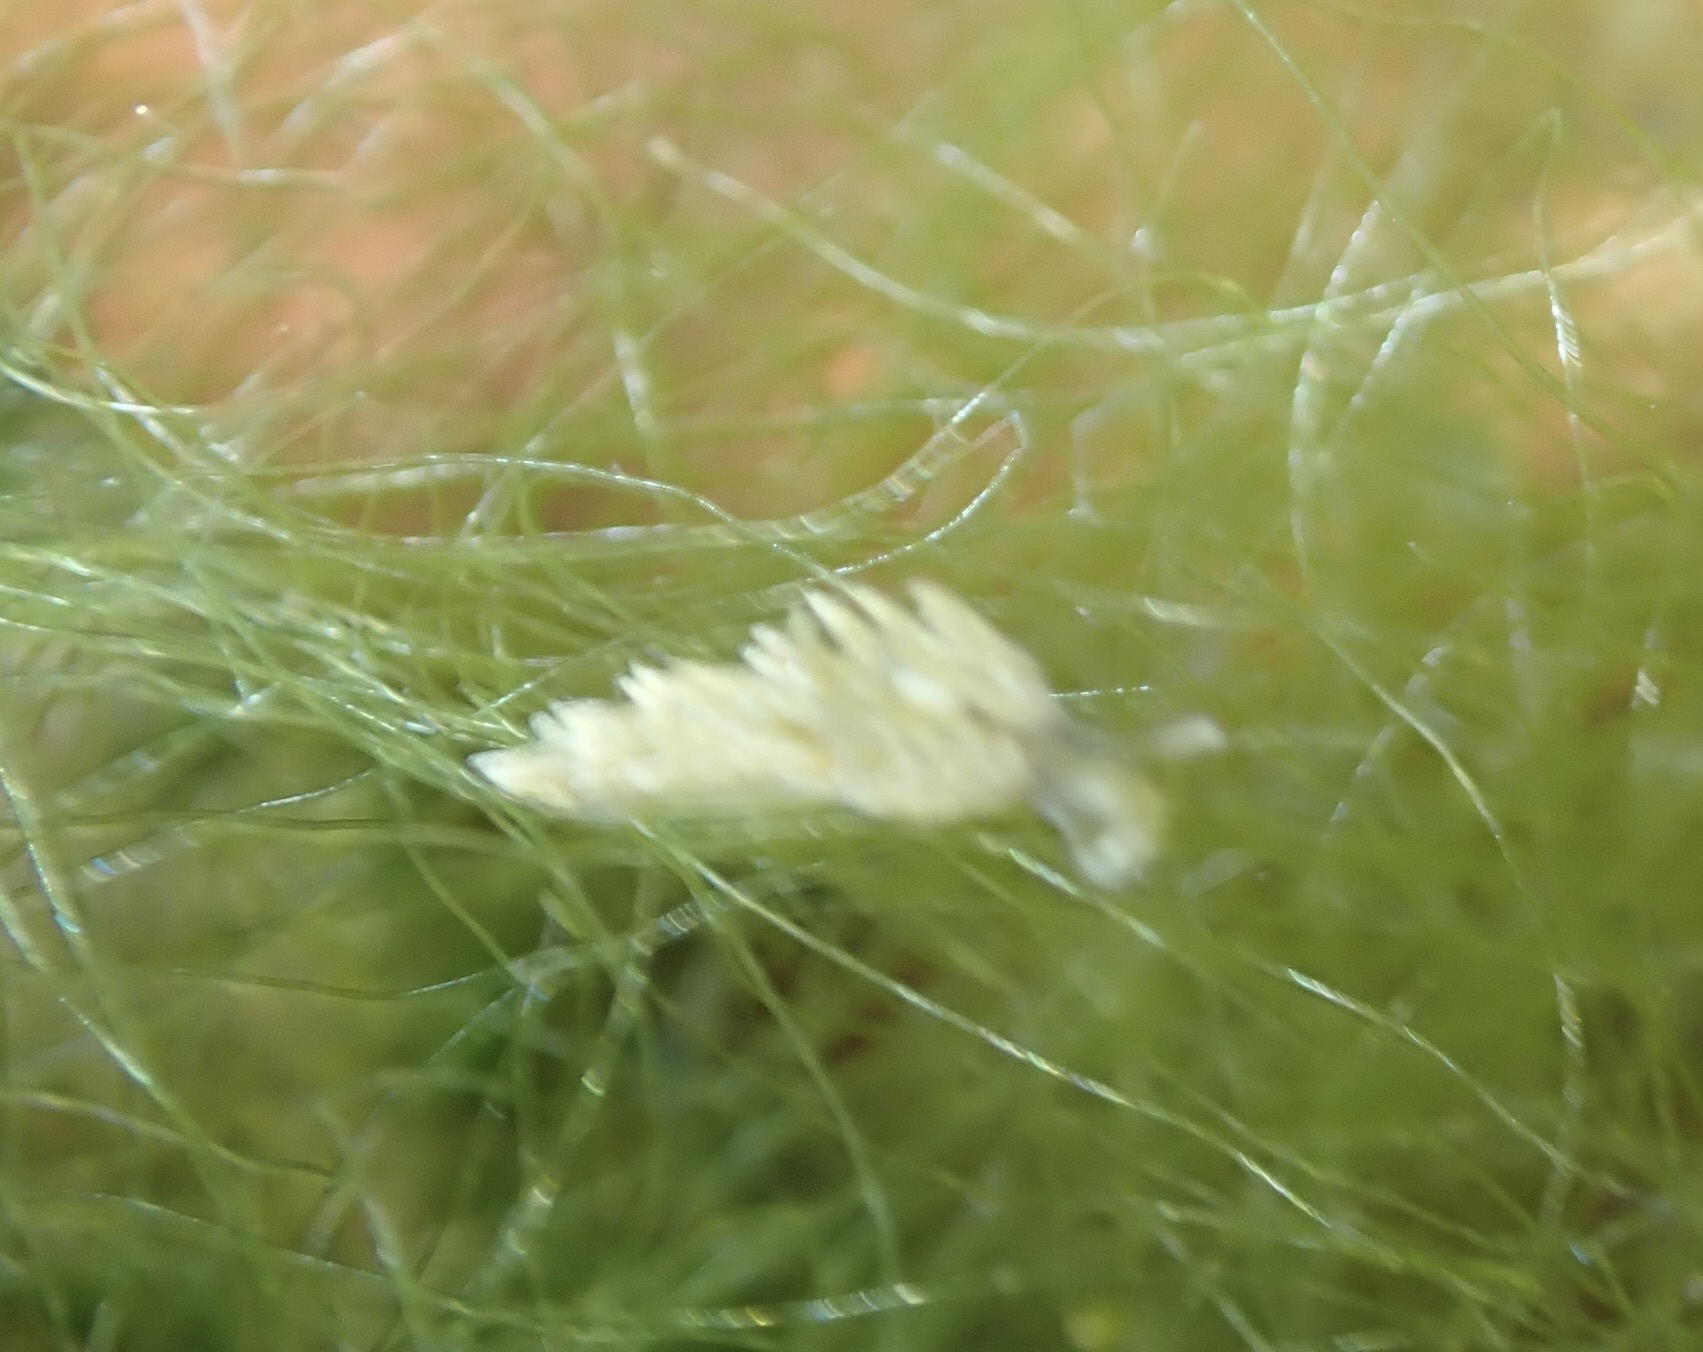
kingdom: Animalia
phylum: Mollusca
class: Gastropoda
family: Limapontiidae
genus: Placida
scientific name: Placida dendritica
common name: Dendritic nudibranch
